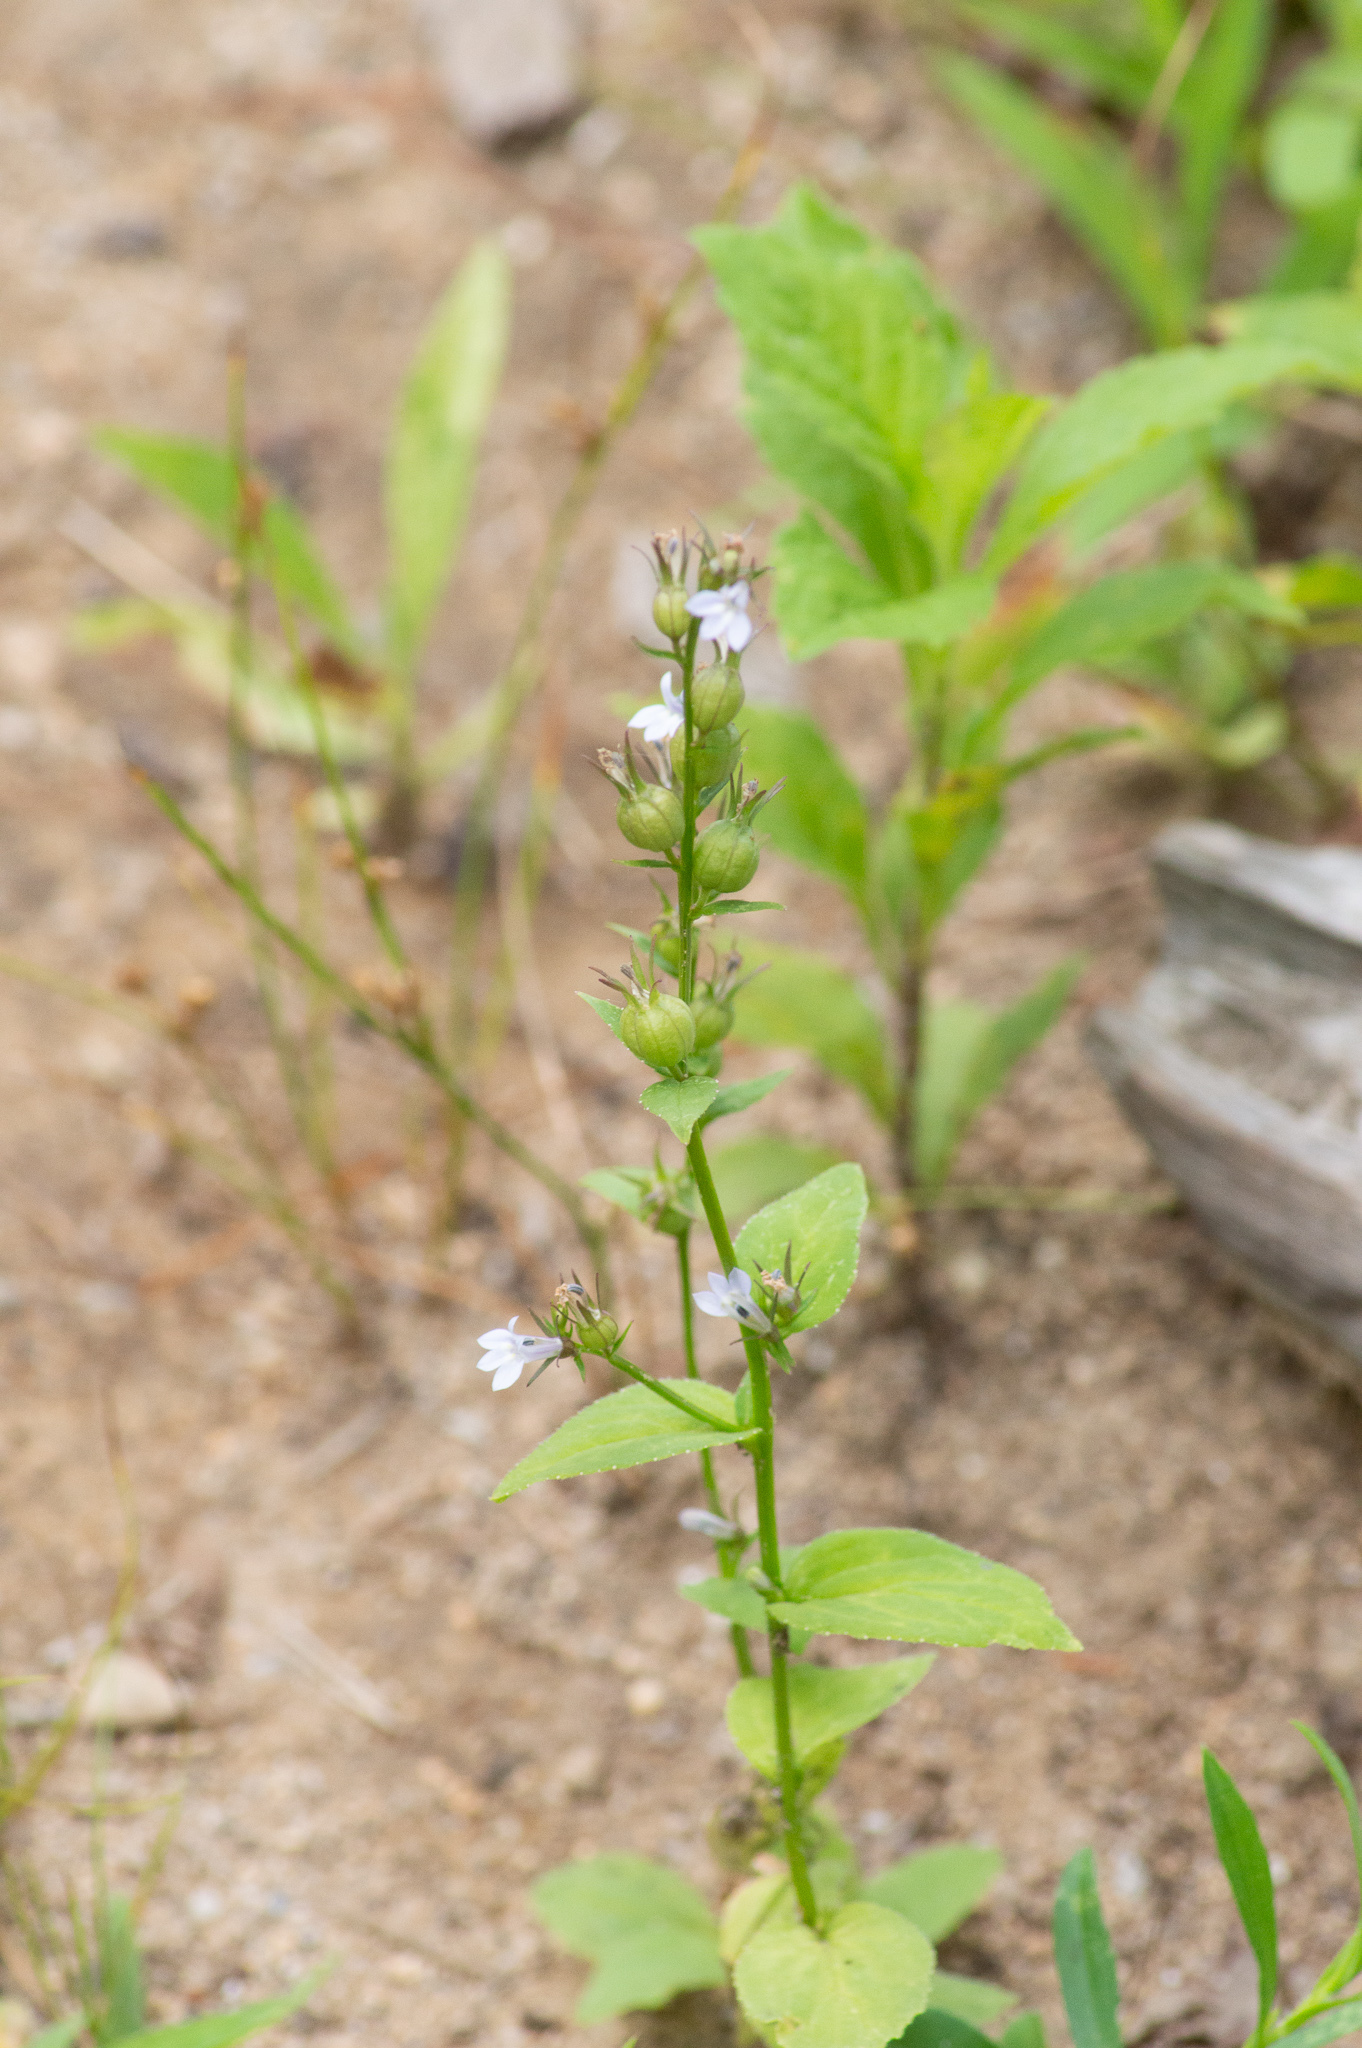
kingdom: Plantae
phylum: Tracheophyta
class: Magnoliopsida
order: Asterales
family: Campanulaceae
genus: Lobelia
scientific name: Lobelia inflata
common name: Indian tobacco
